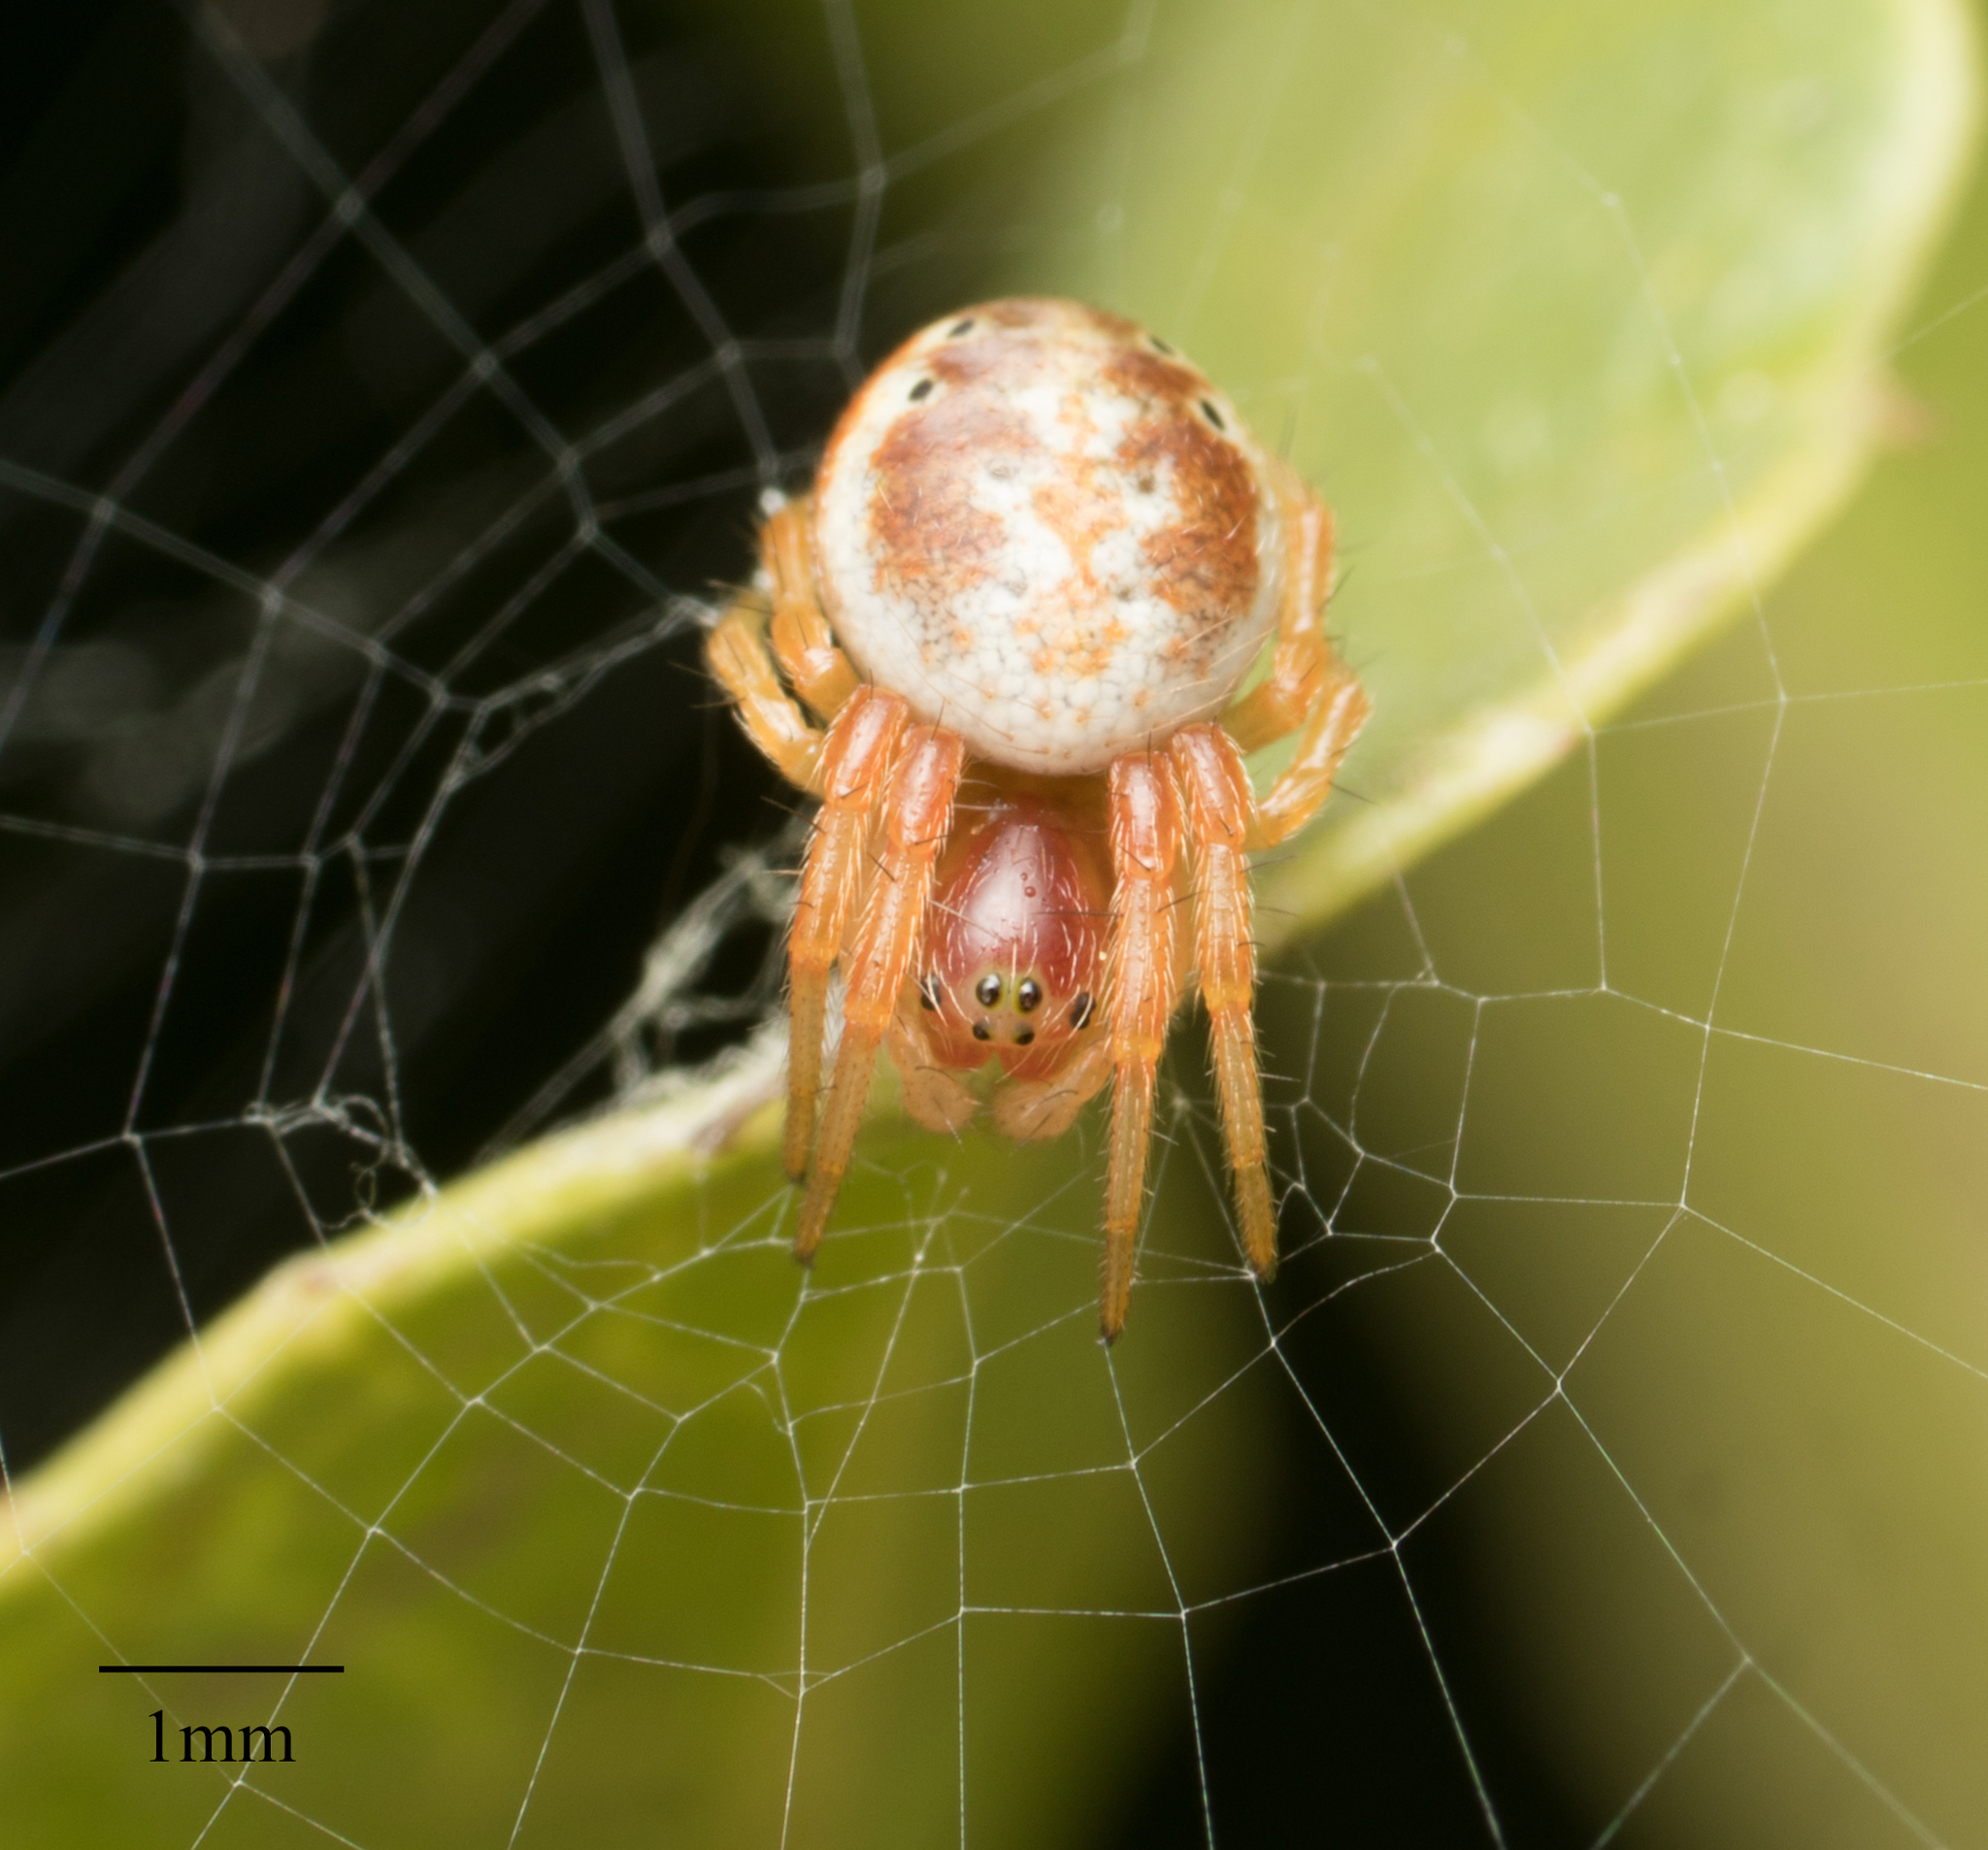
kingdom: Animalia
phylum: Arthropoda
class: Arachnida
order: Araneae
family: Araneidae
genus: Araniella
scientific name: Araniella displicata
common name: Sixspotted orb weaver
